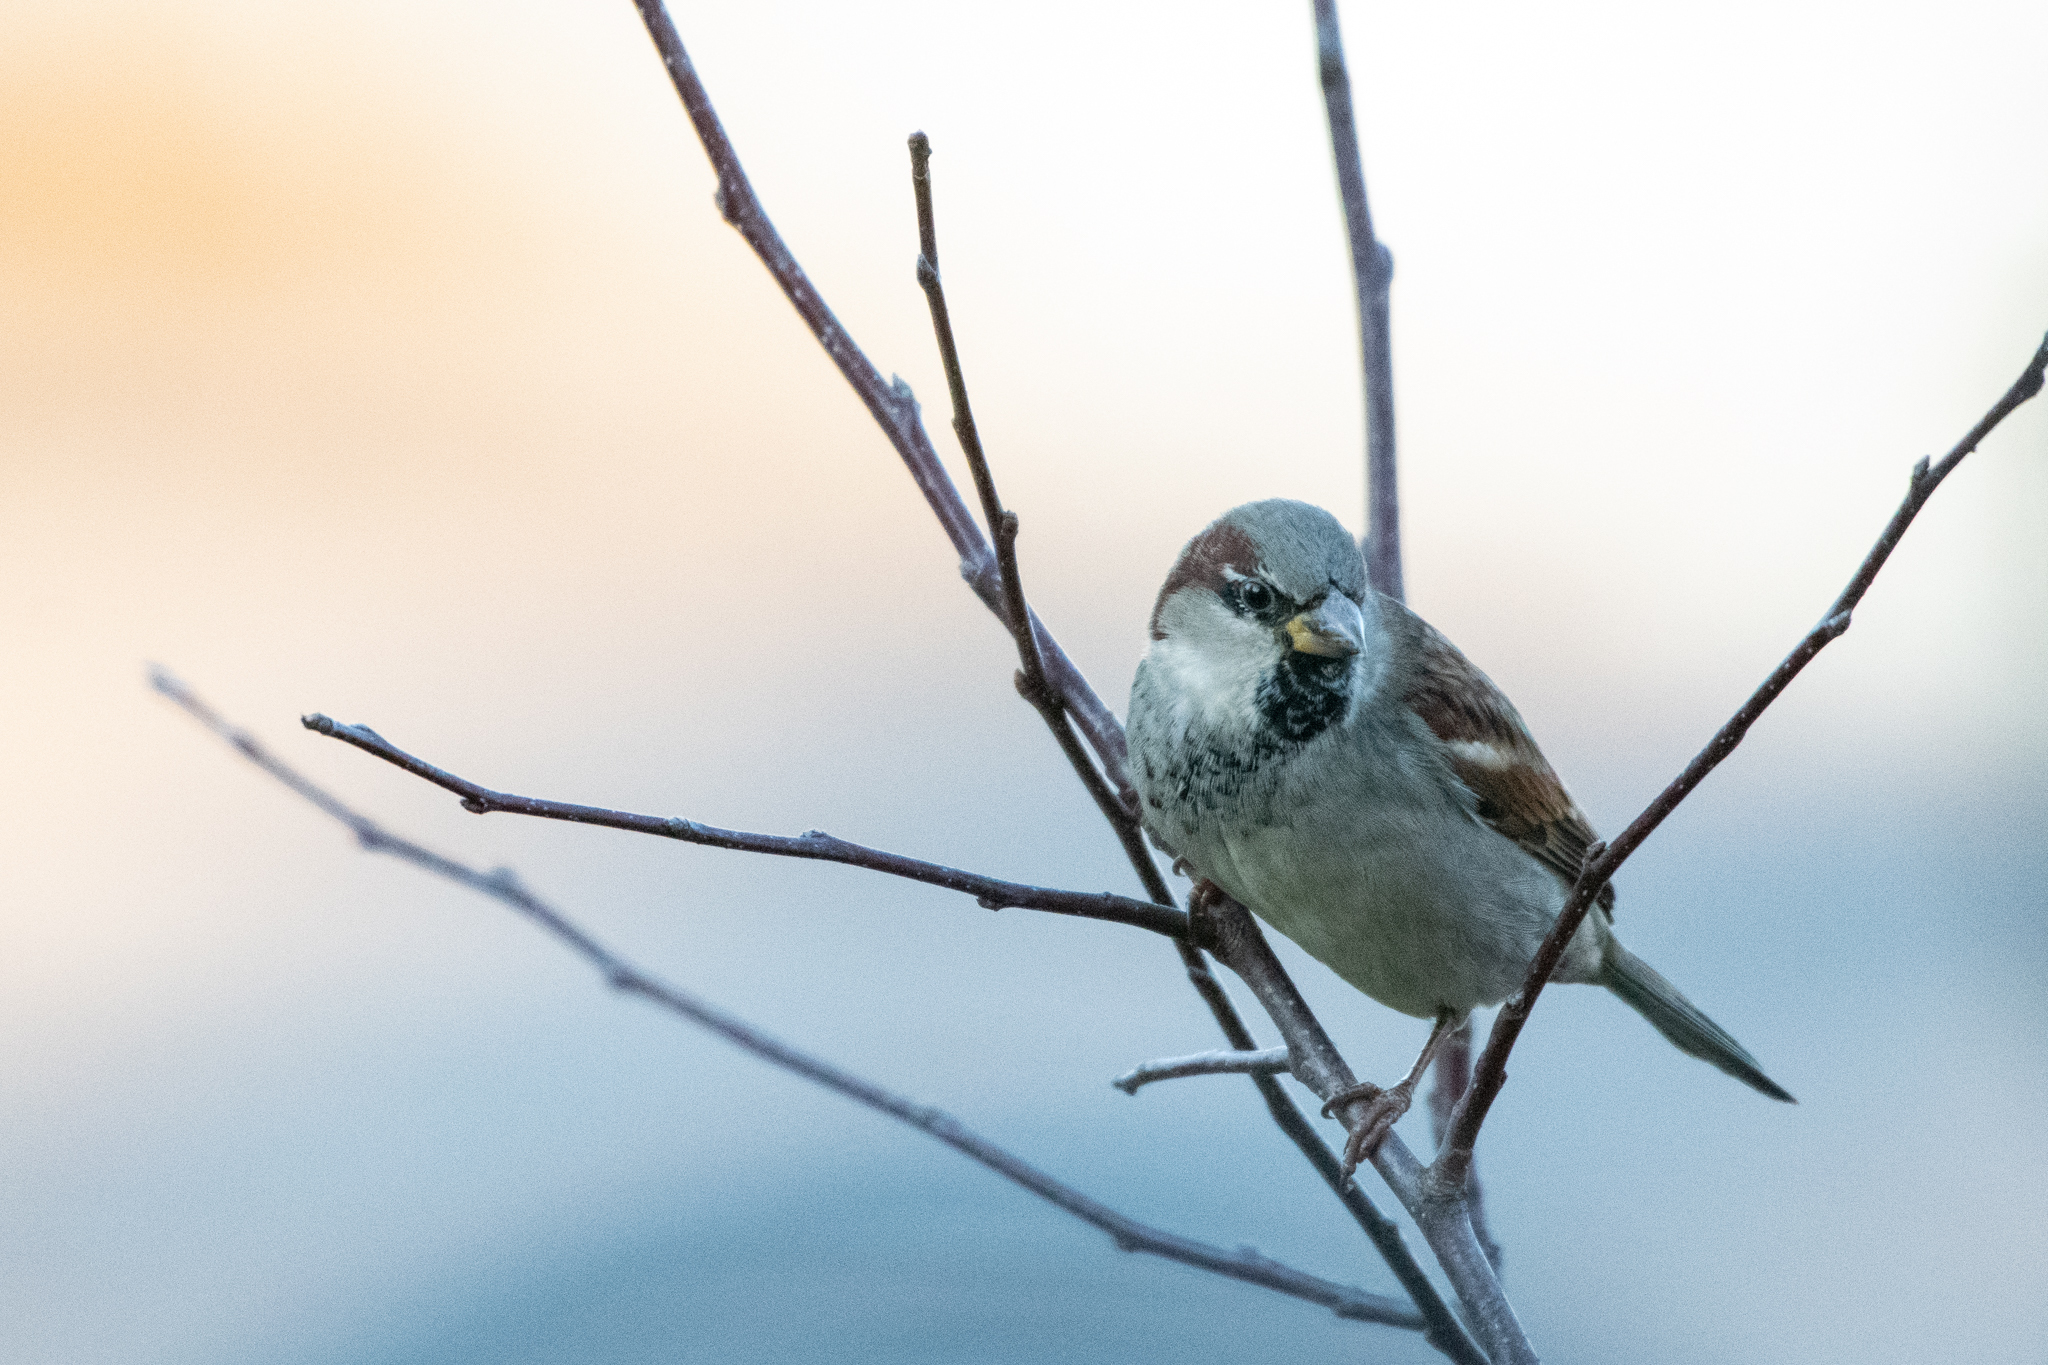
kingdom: Animalia
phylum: Chordata
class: Aves
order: Passeriformes
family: Passeridae
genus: Passer
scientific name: Passer domesticus
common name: House sparrow
